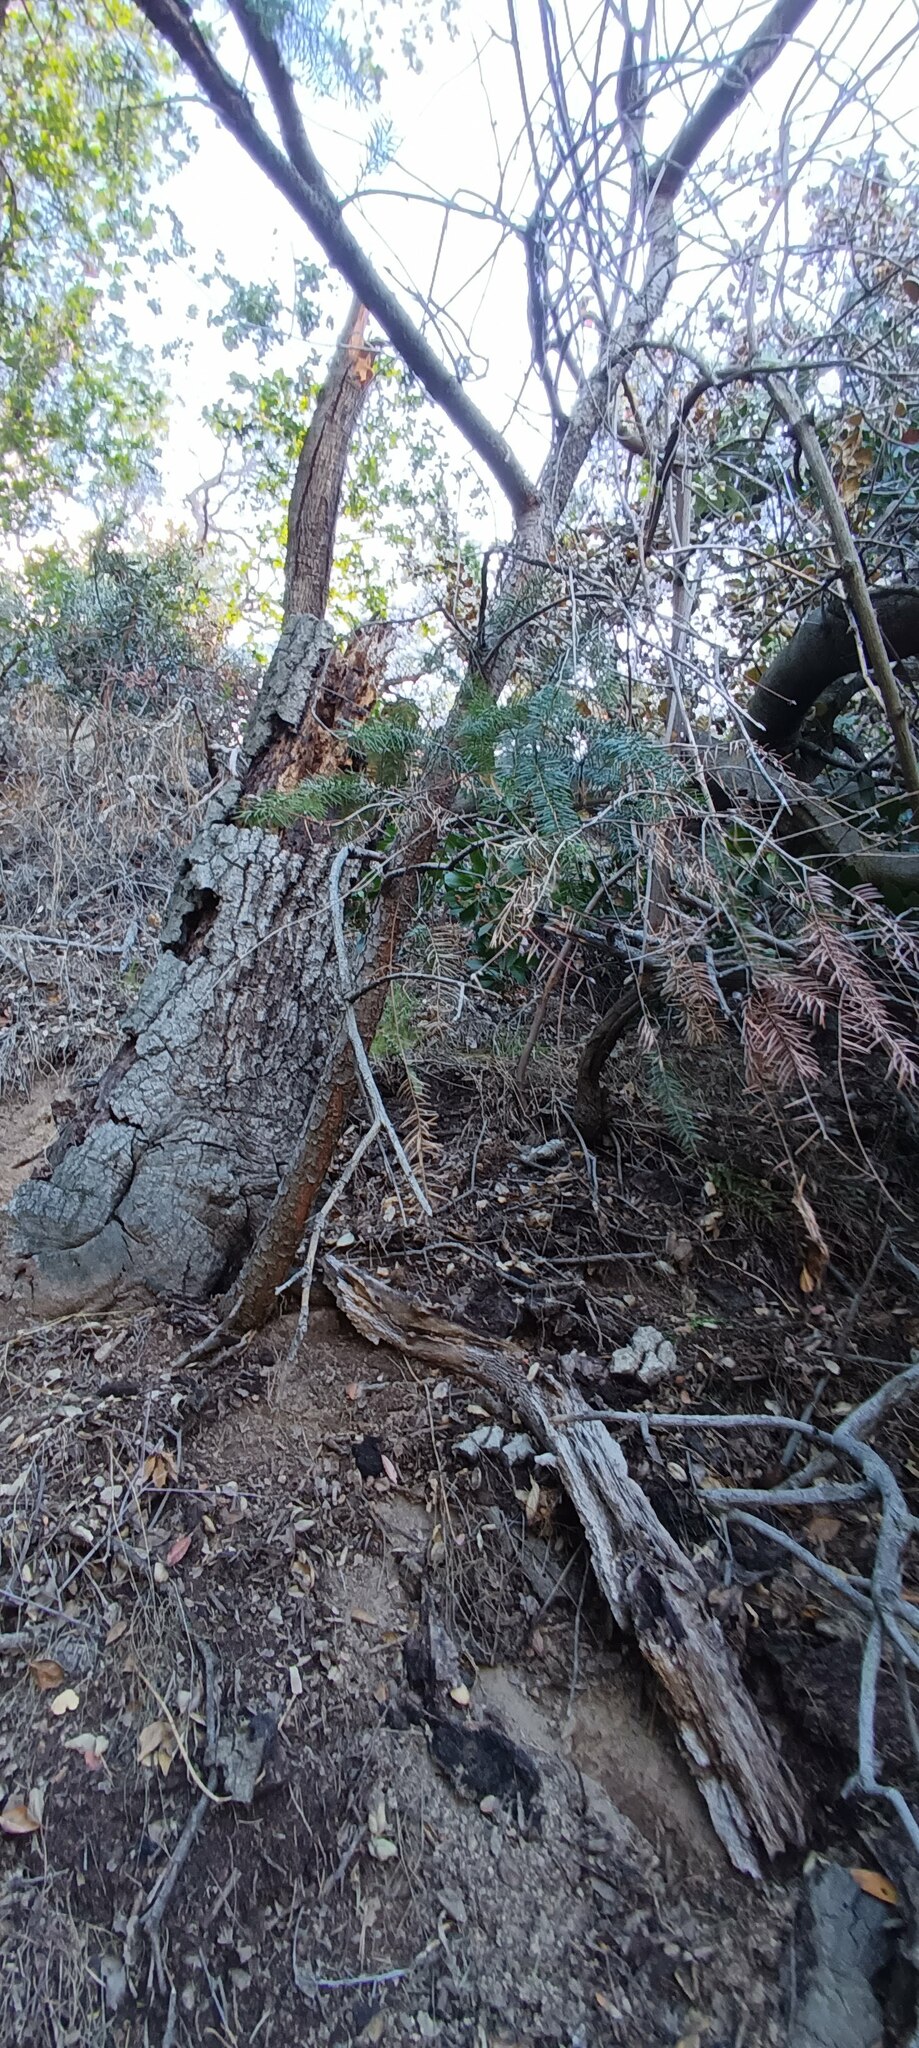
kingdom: Plantae
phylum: Tracheophyta
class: Pinopsida
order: Pinales
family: Pinaceae
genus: Pseudotsuga
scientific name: Pseudotsuga macrocarpa
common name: Big-cone douglas-fir
